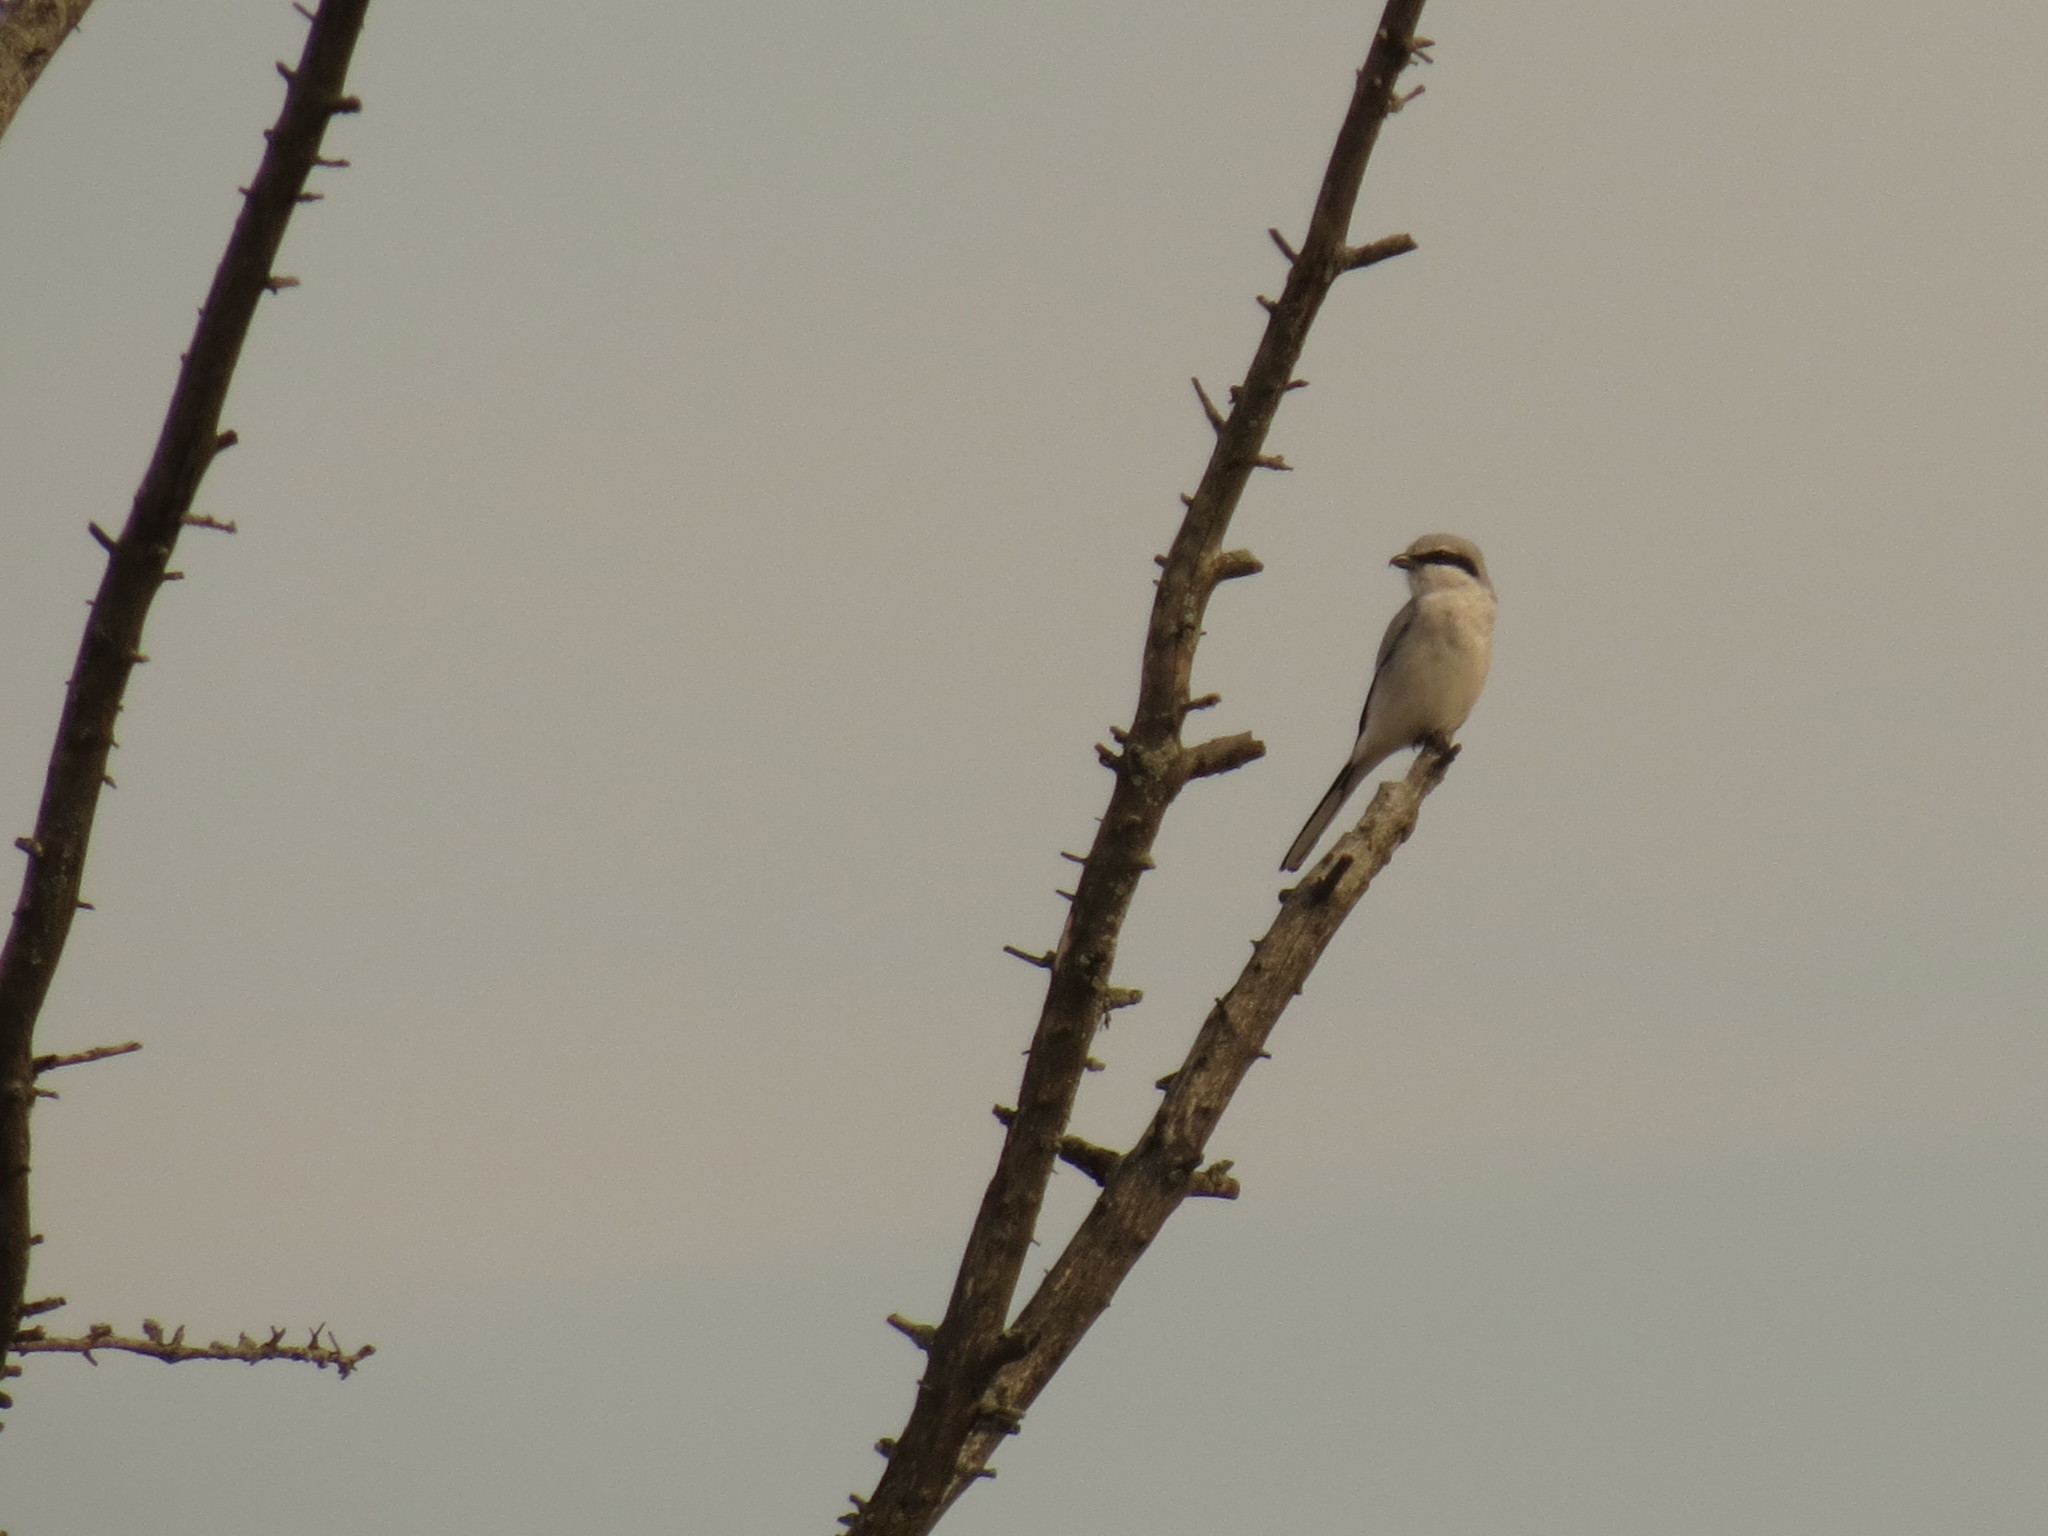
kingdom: Animalia
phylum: Chordata
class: Aves
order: Passeriformes
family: Laniidae
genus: Lanius
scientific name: Lanius borealis
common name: Northern shrike
